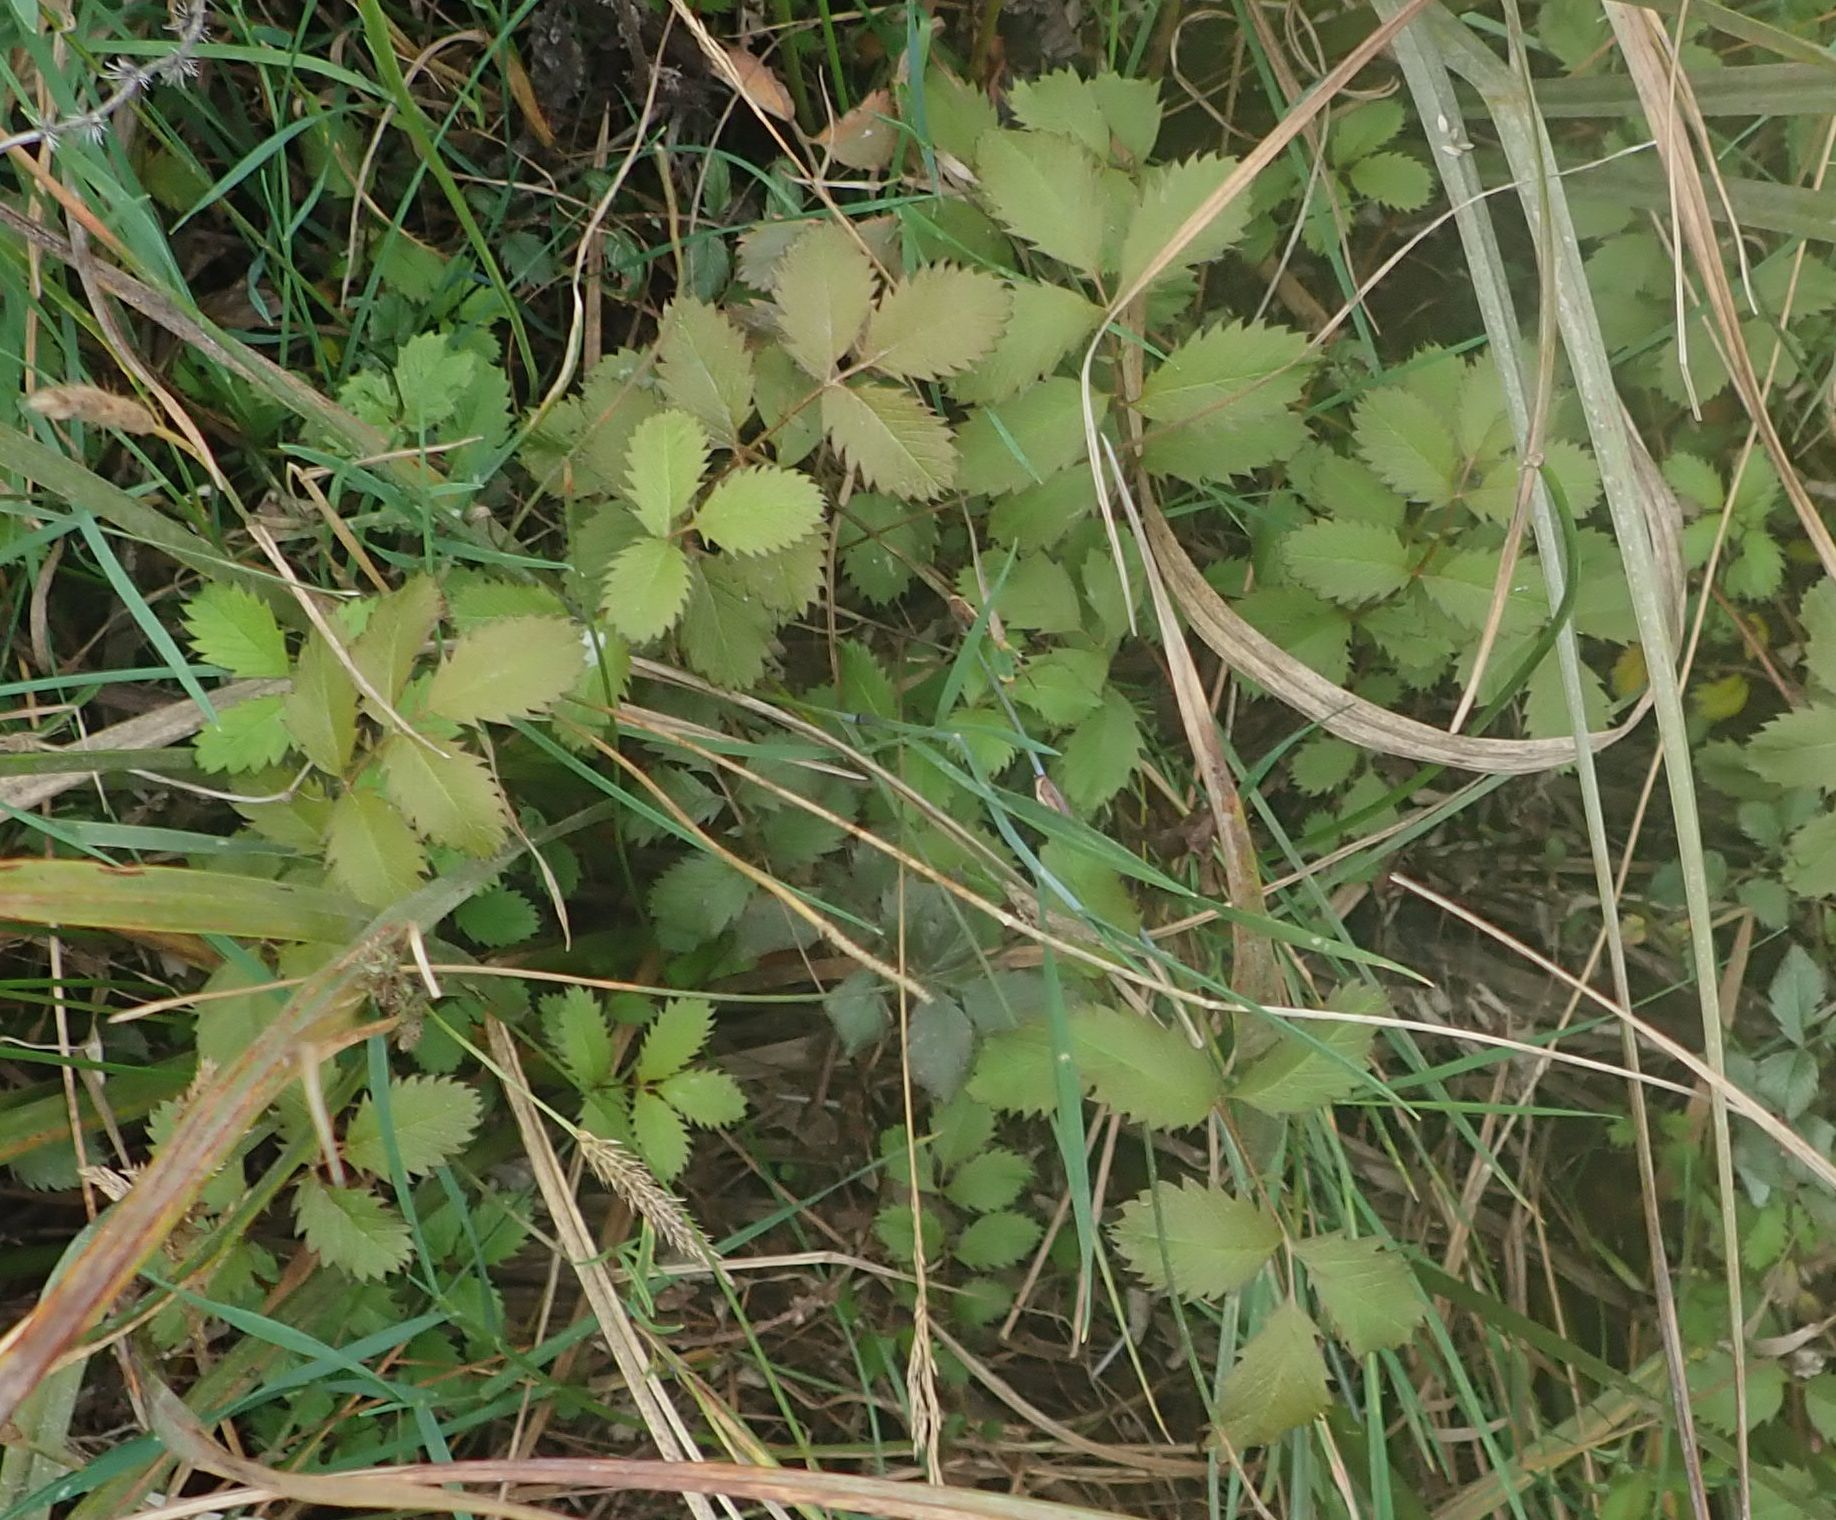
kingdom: Plantae
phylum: Tracheophyta
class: Magnoliopsida
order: Rosales
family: Rosaceae
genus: Argentina
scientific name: Argentina anserinoides
